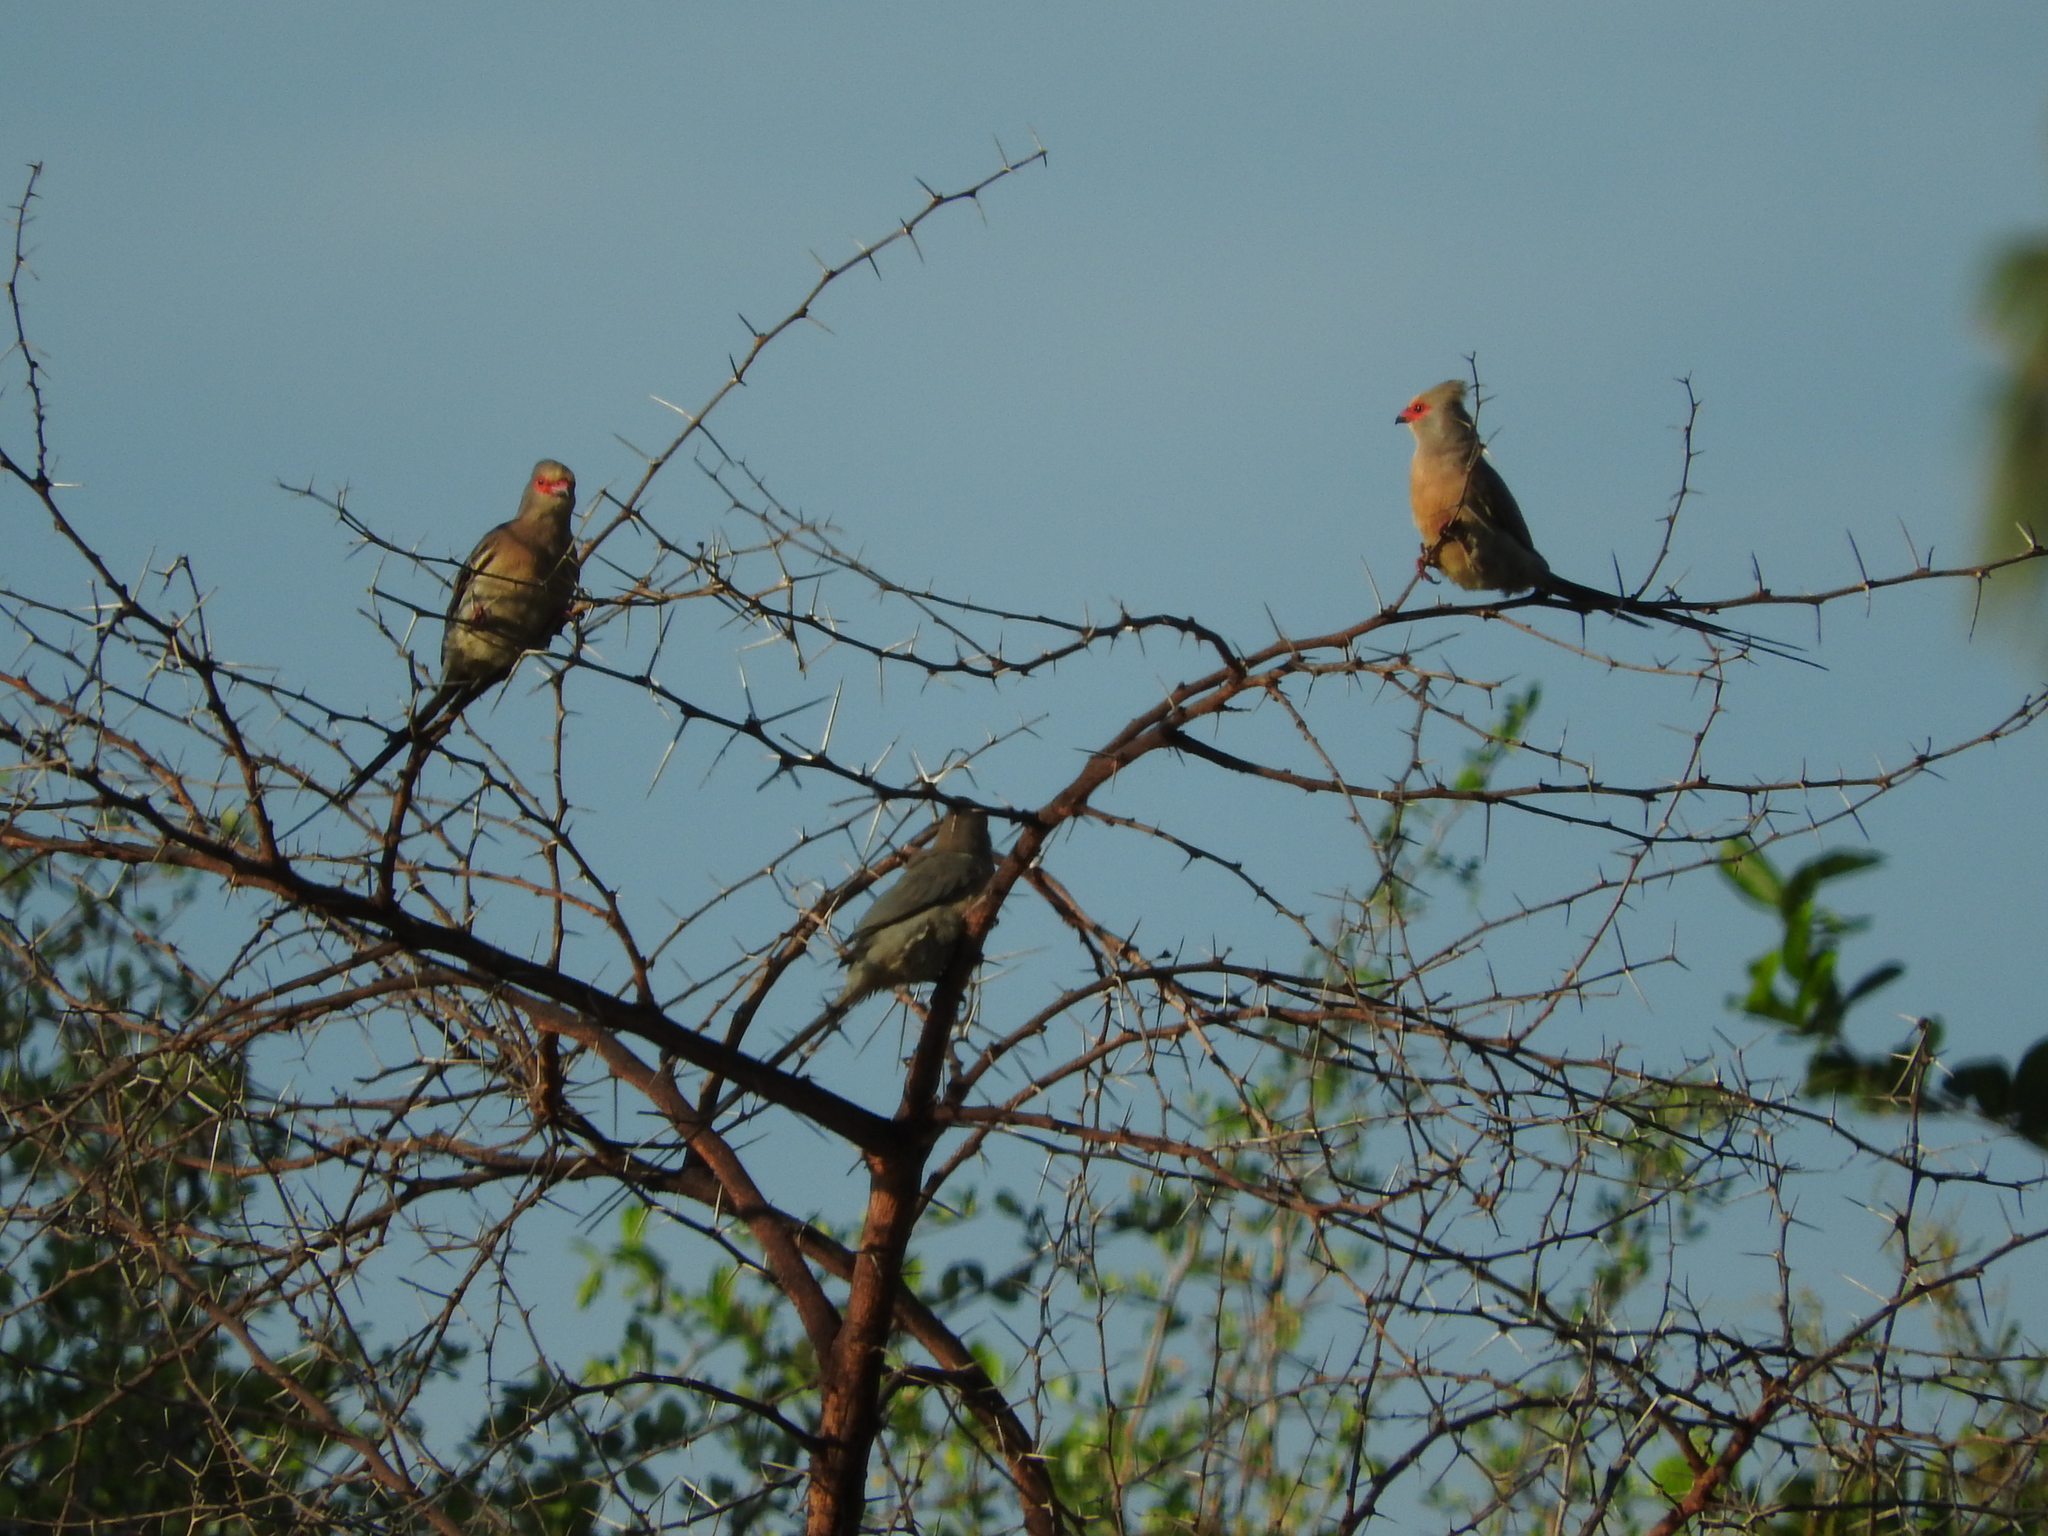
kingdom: Animalia
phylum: Chordata
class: Aves
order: Coliiformes
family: Coliidae
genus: Urocolius
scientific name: Urocolius indicus
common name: Red-faced mousebird
